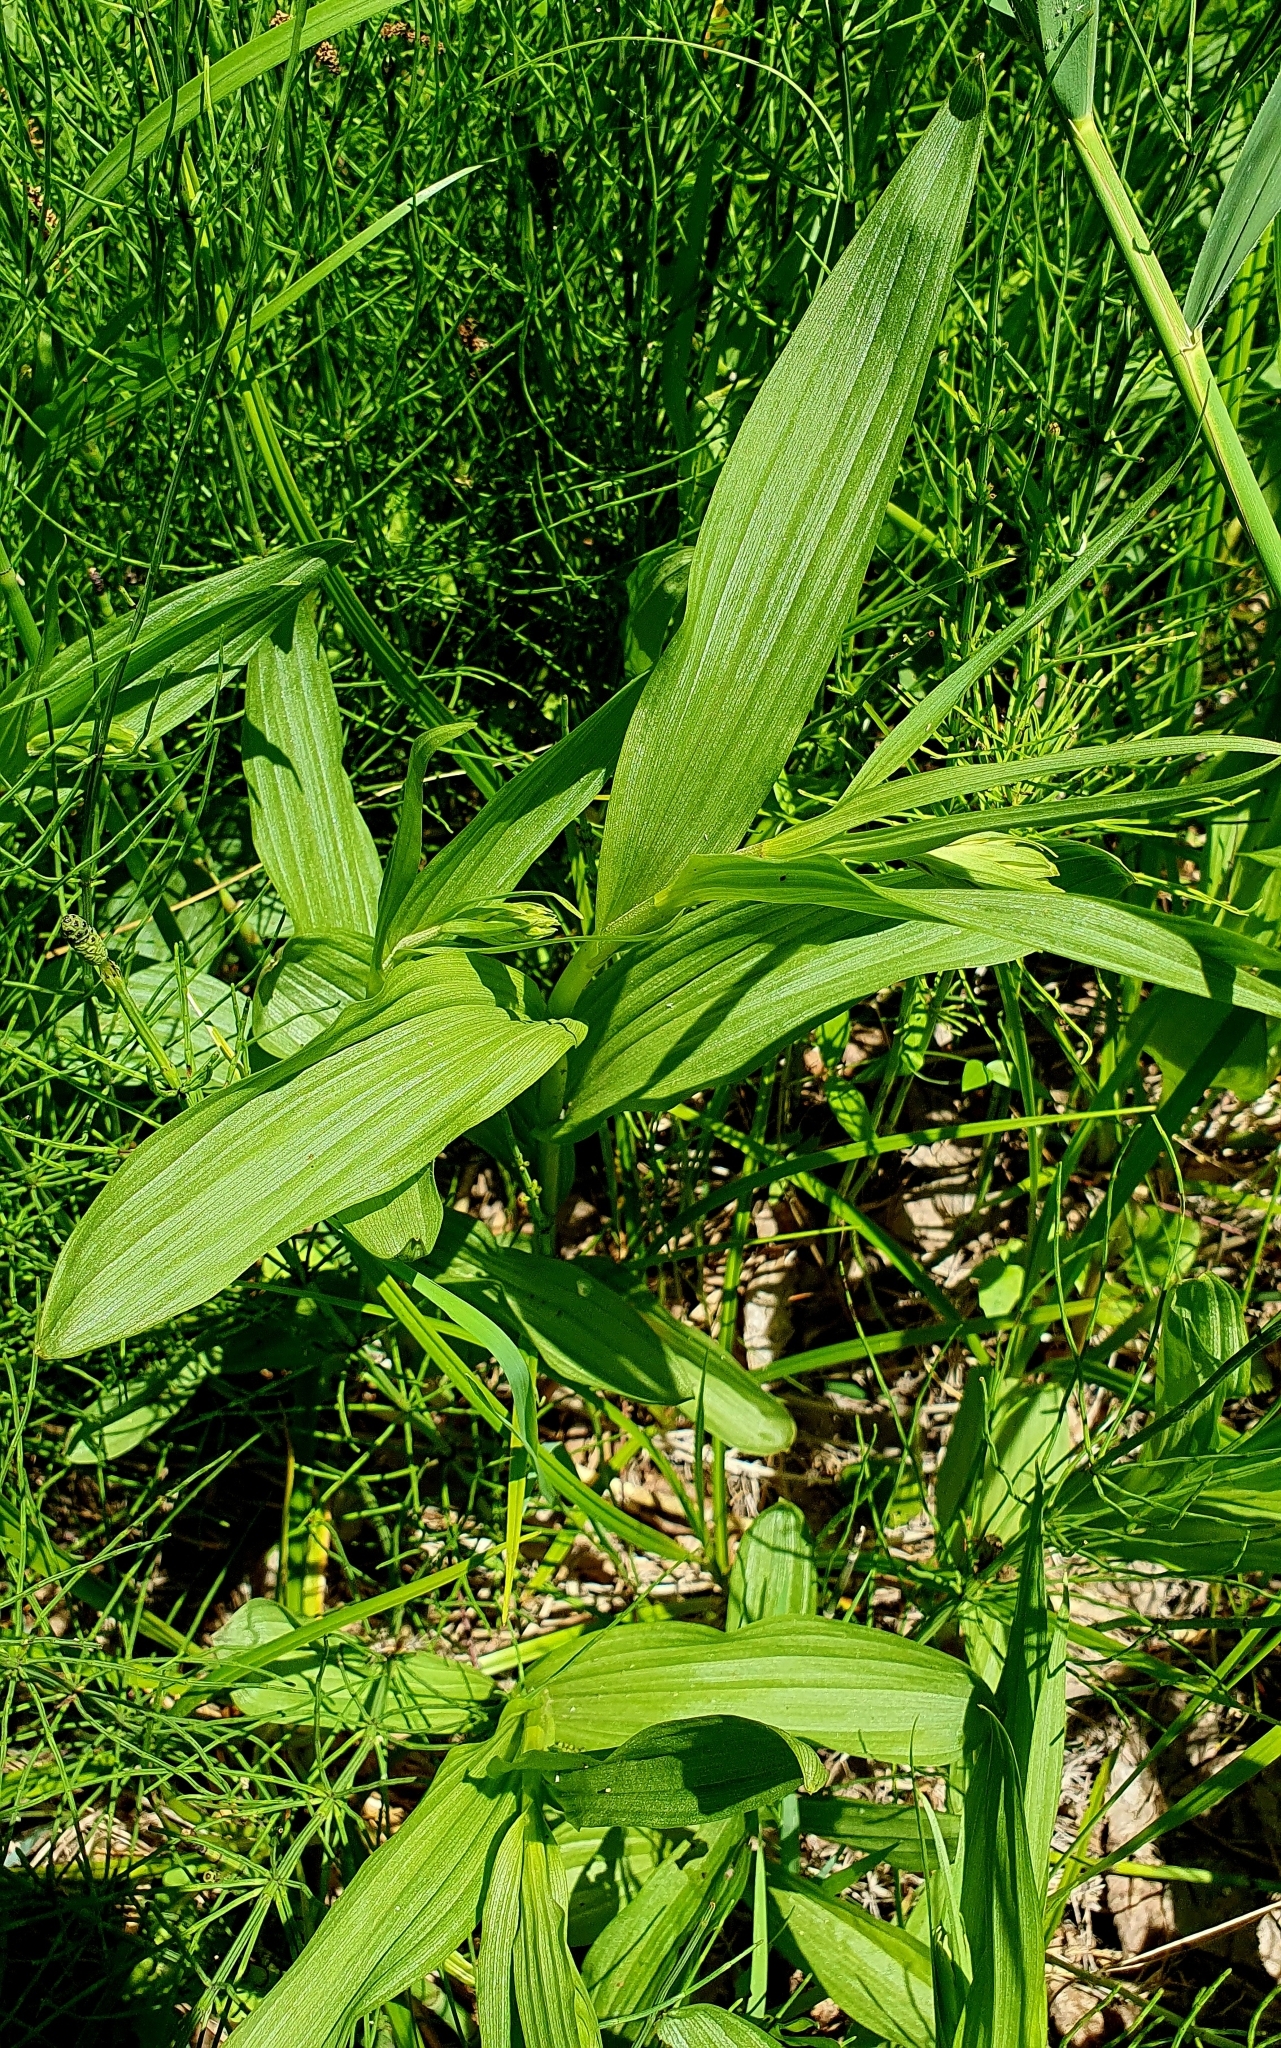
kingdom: Plantae
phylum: Tracheophyta
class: Liliopsida
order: Asparagales
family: Orchidaceae
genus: Epipactis
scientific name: Epipactis palustris
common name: Marsh helleborine
